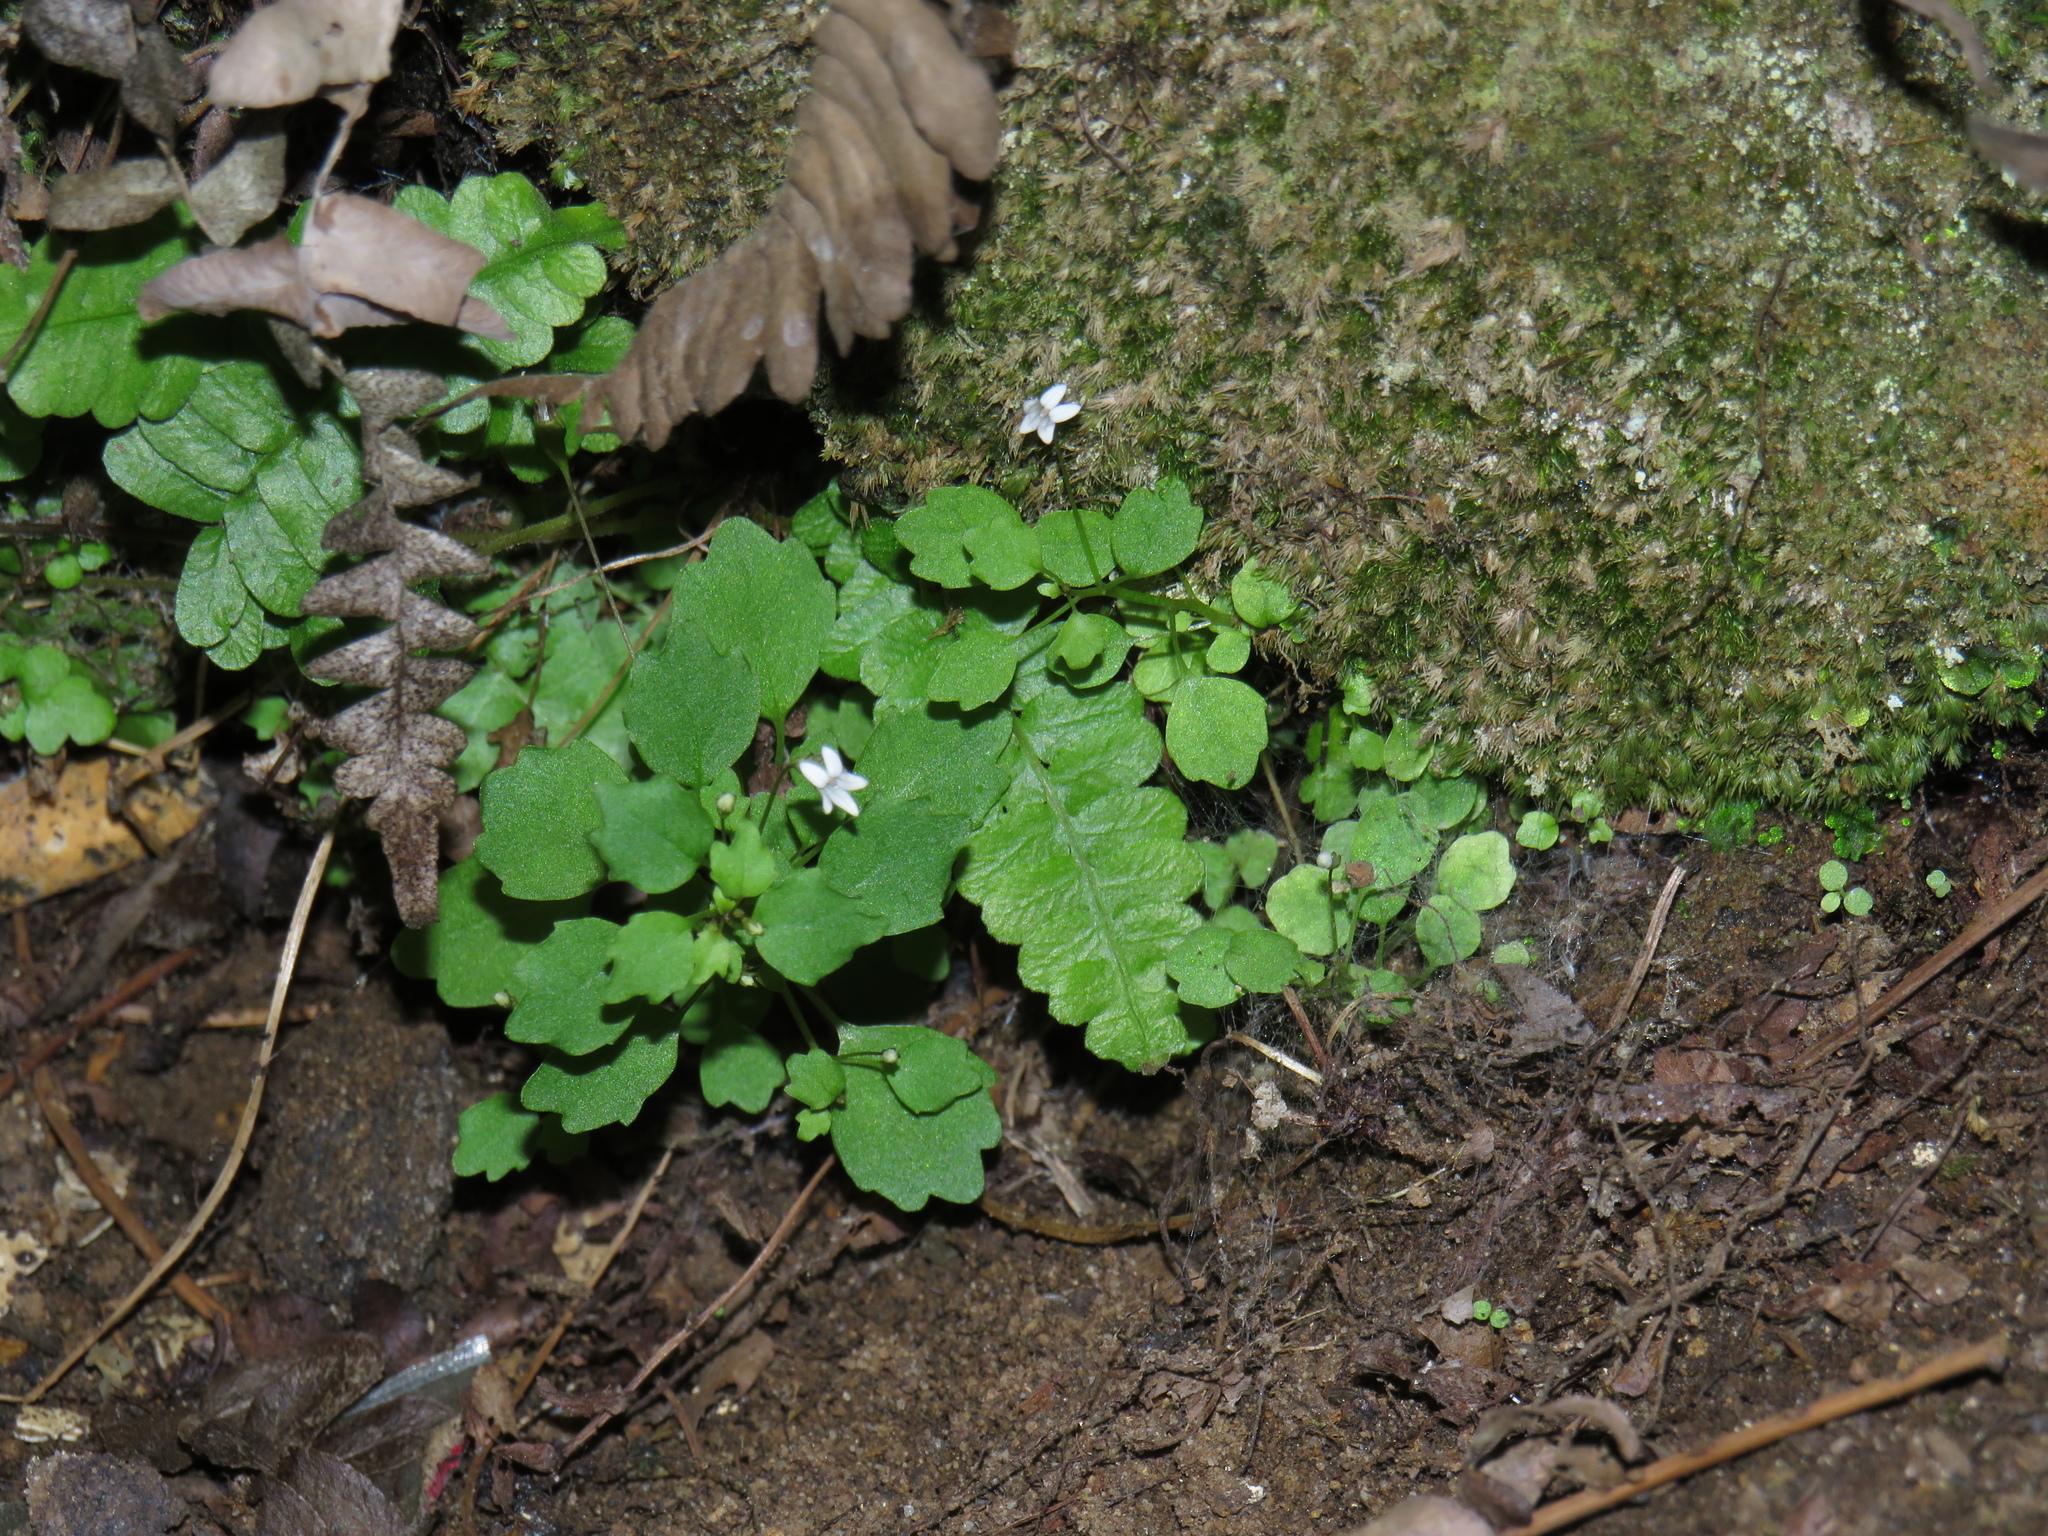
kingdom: Plantae
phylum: Tracheophyta
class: Magnoliopsida
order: Asterales
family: Campanulaceae
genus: Wimmerella
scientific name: Wimmerella pygmaea
